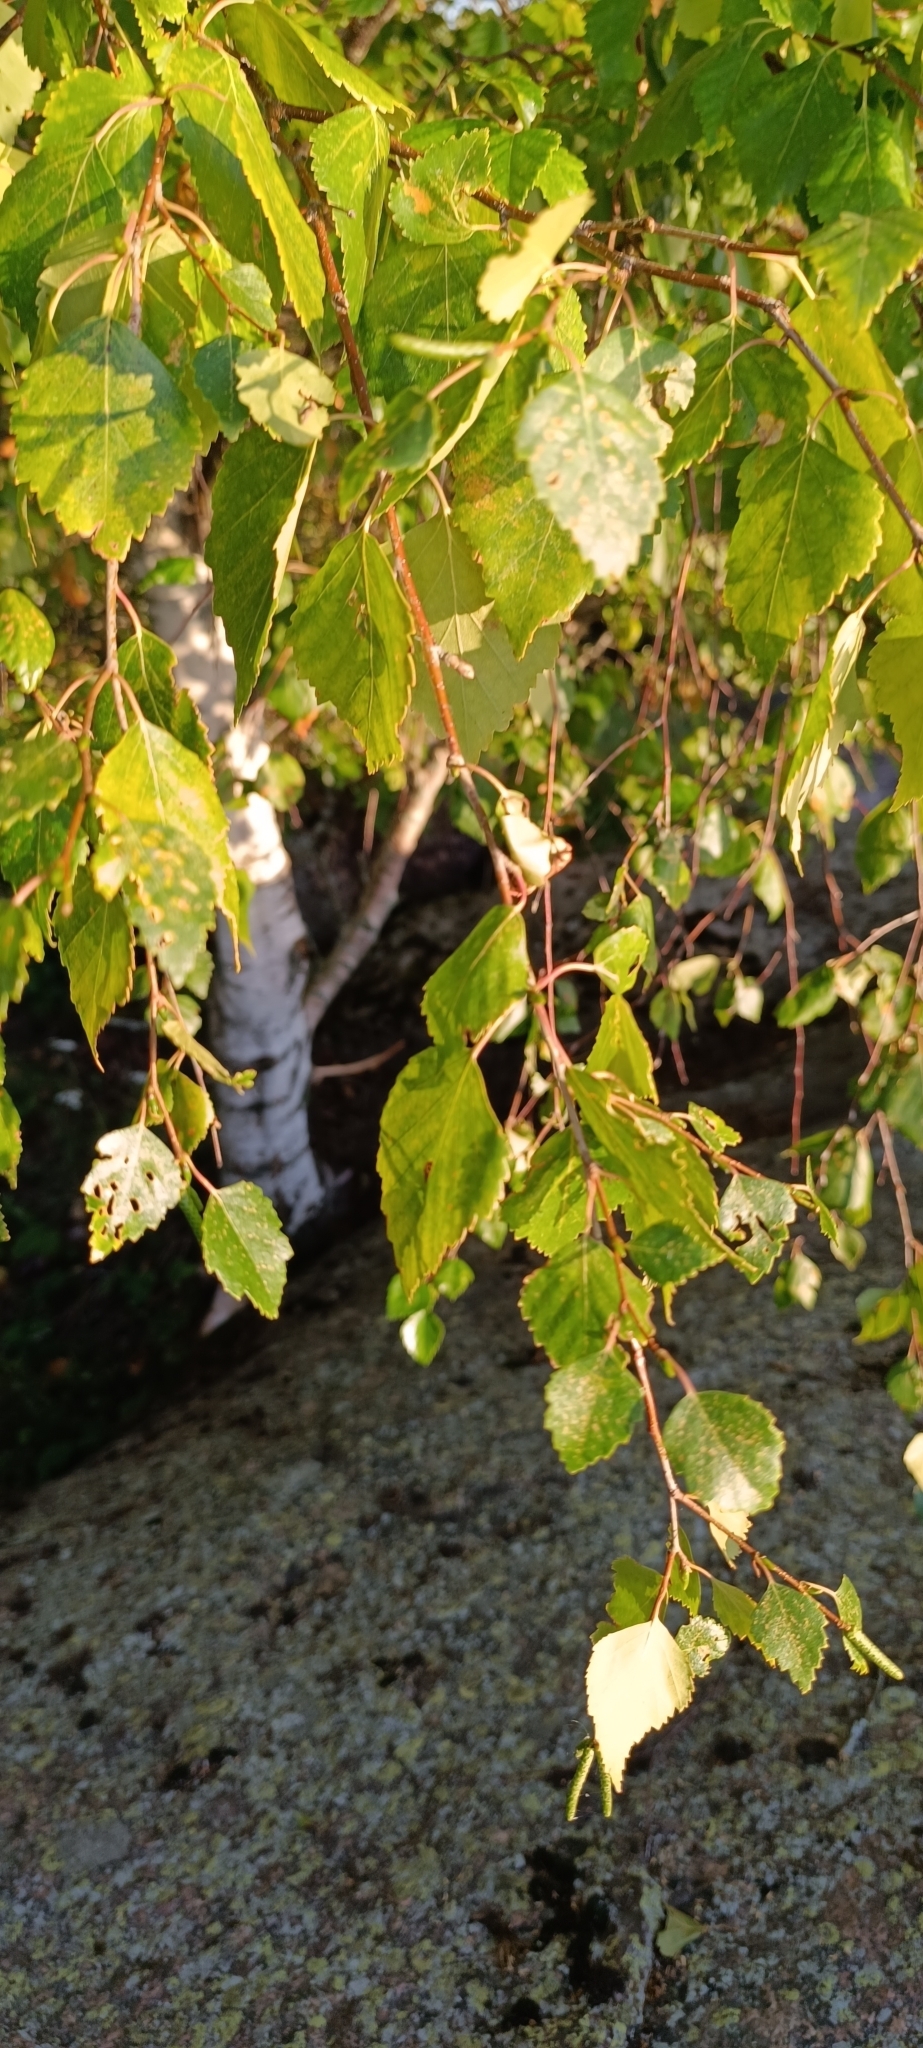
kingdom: Plantae
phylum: Tracheophyta
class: Magnoliopsida
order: Fagales
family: Betulaceae
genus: Betula
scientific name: Betula pendula
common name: Silver birch
